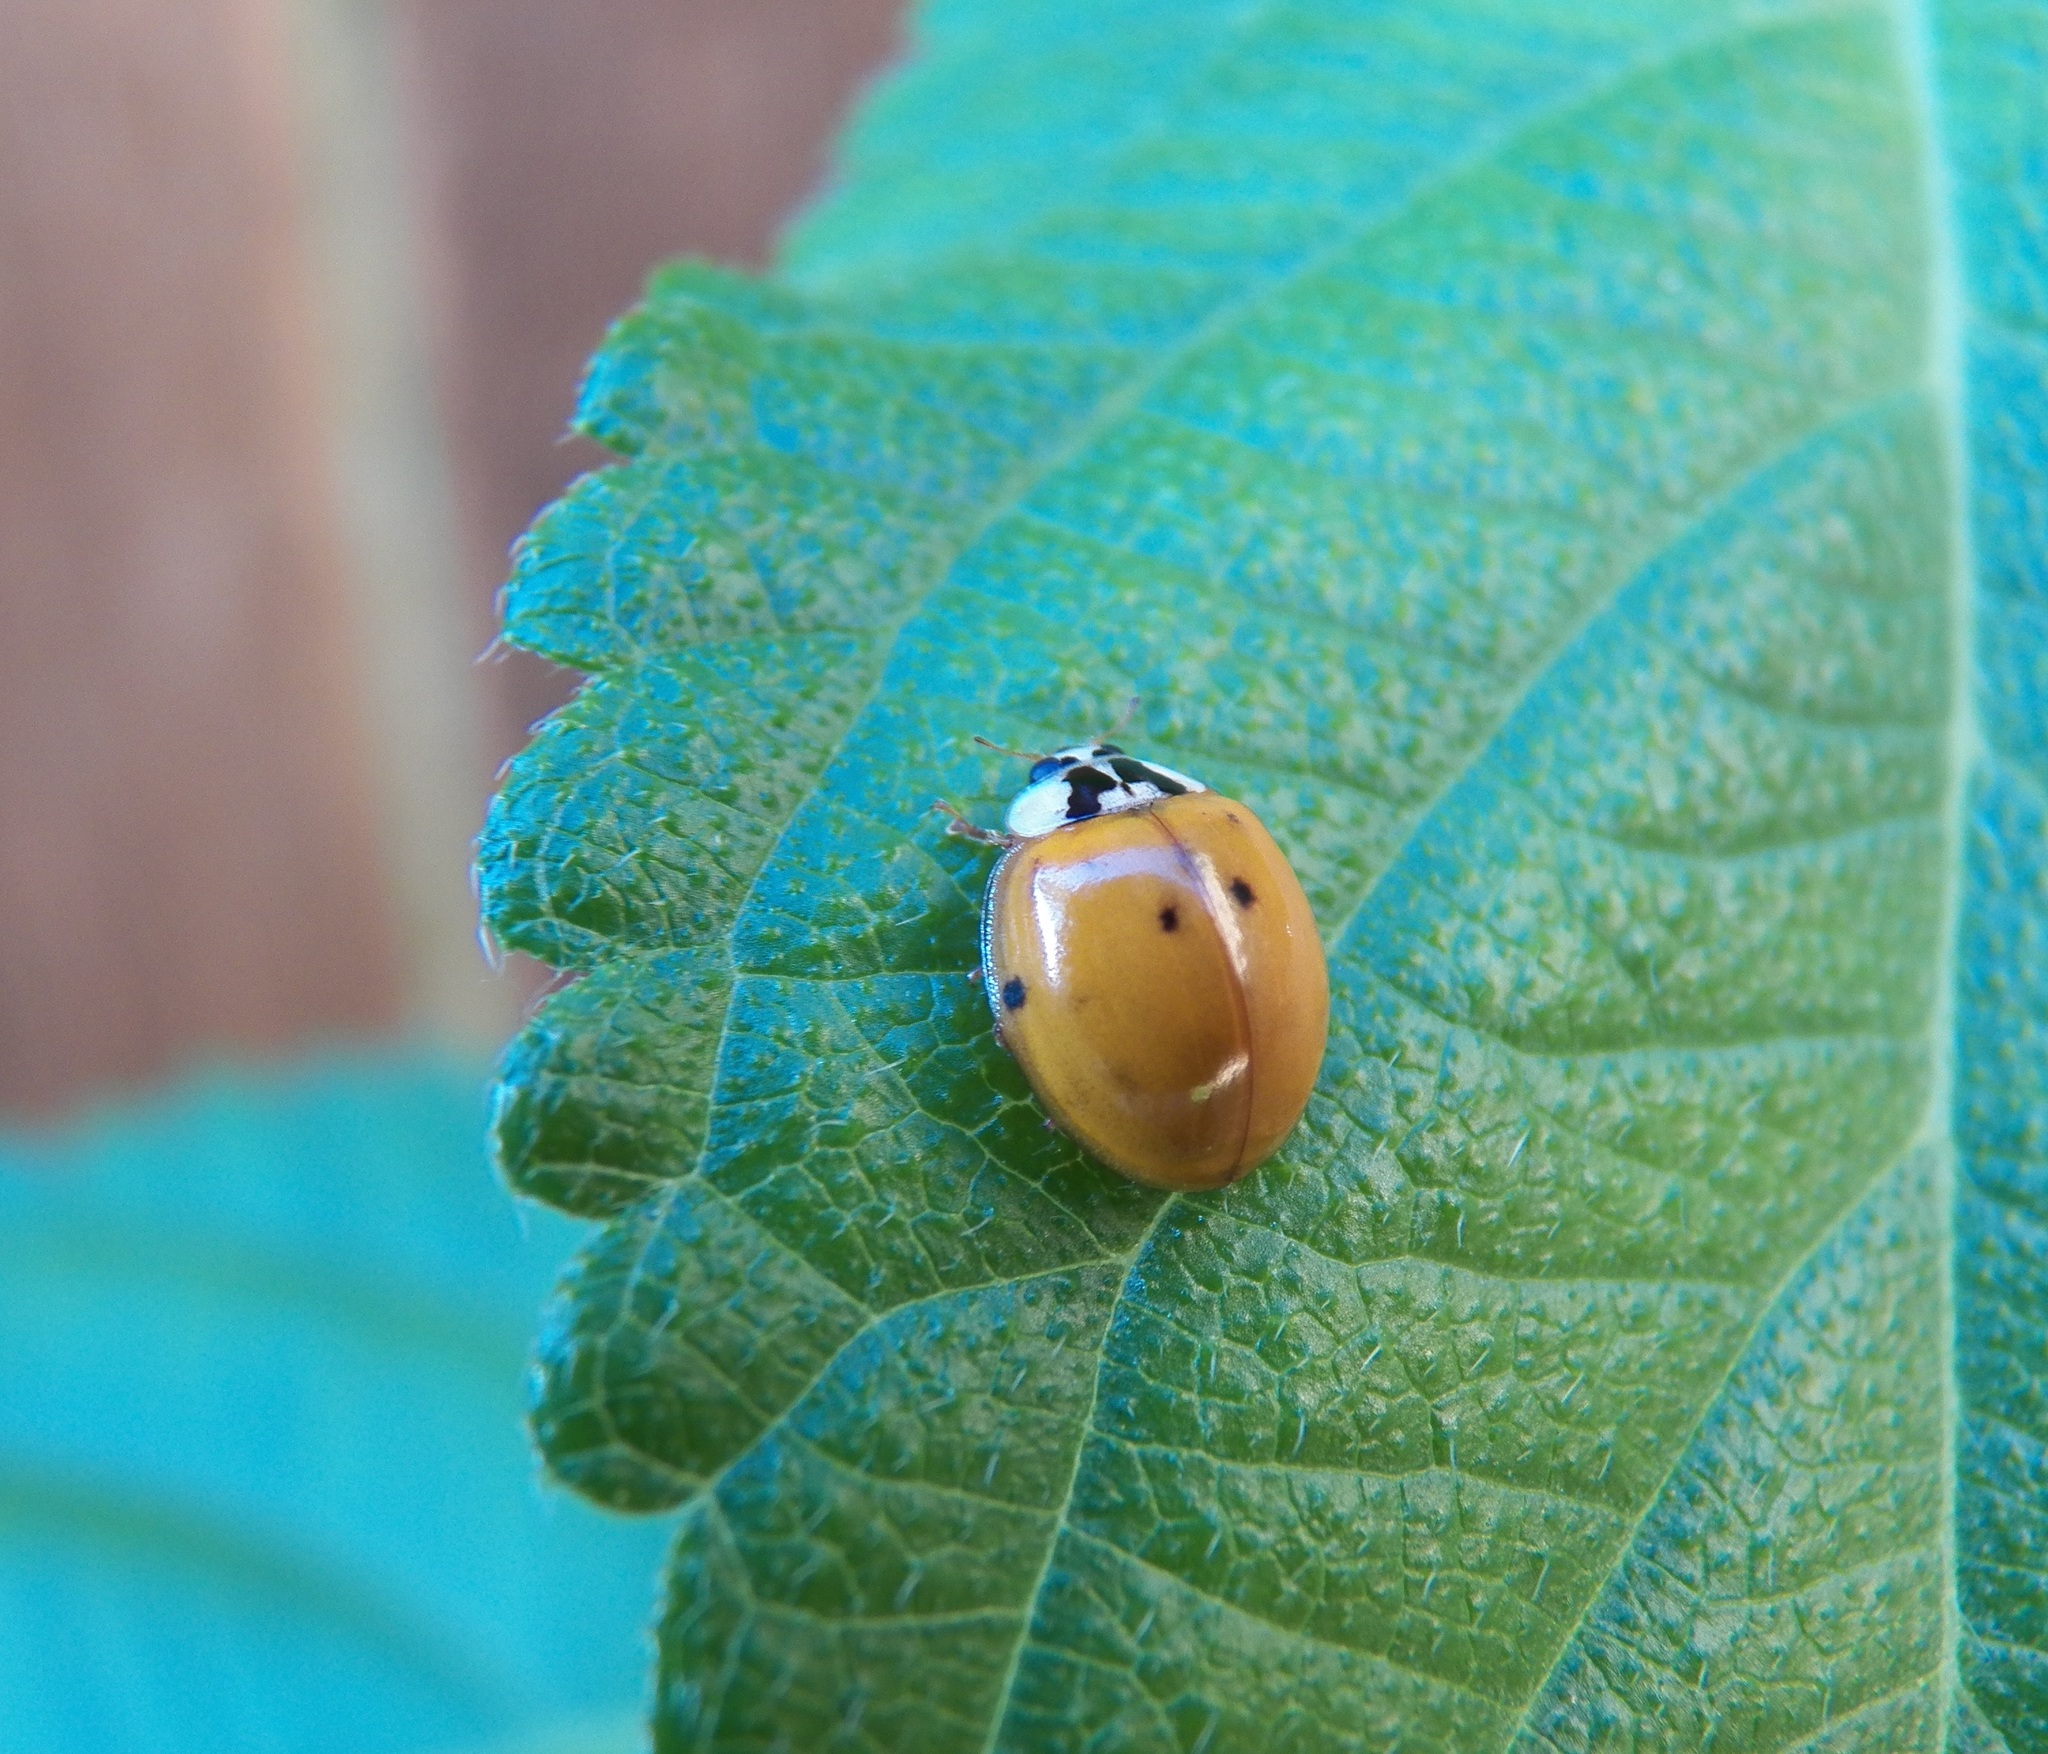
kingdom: Animalia
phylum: Arthropoda
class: Insecta
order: Coleoptera
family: Coccinellidae
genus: Harmonia
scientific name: Harmonia axyridis
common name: Harlequin ladybird
